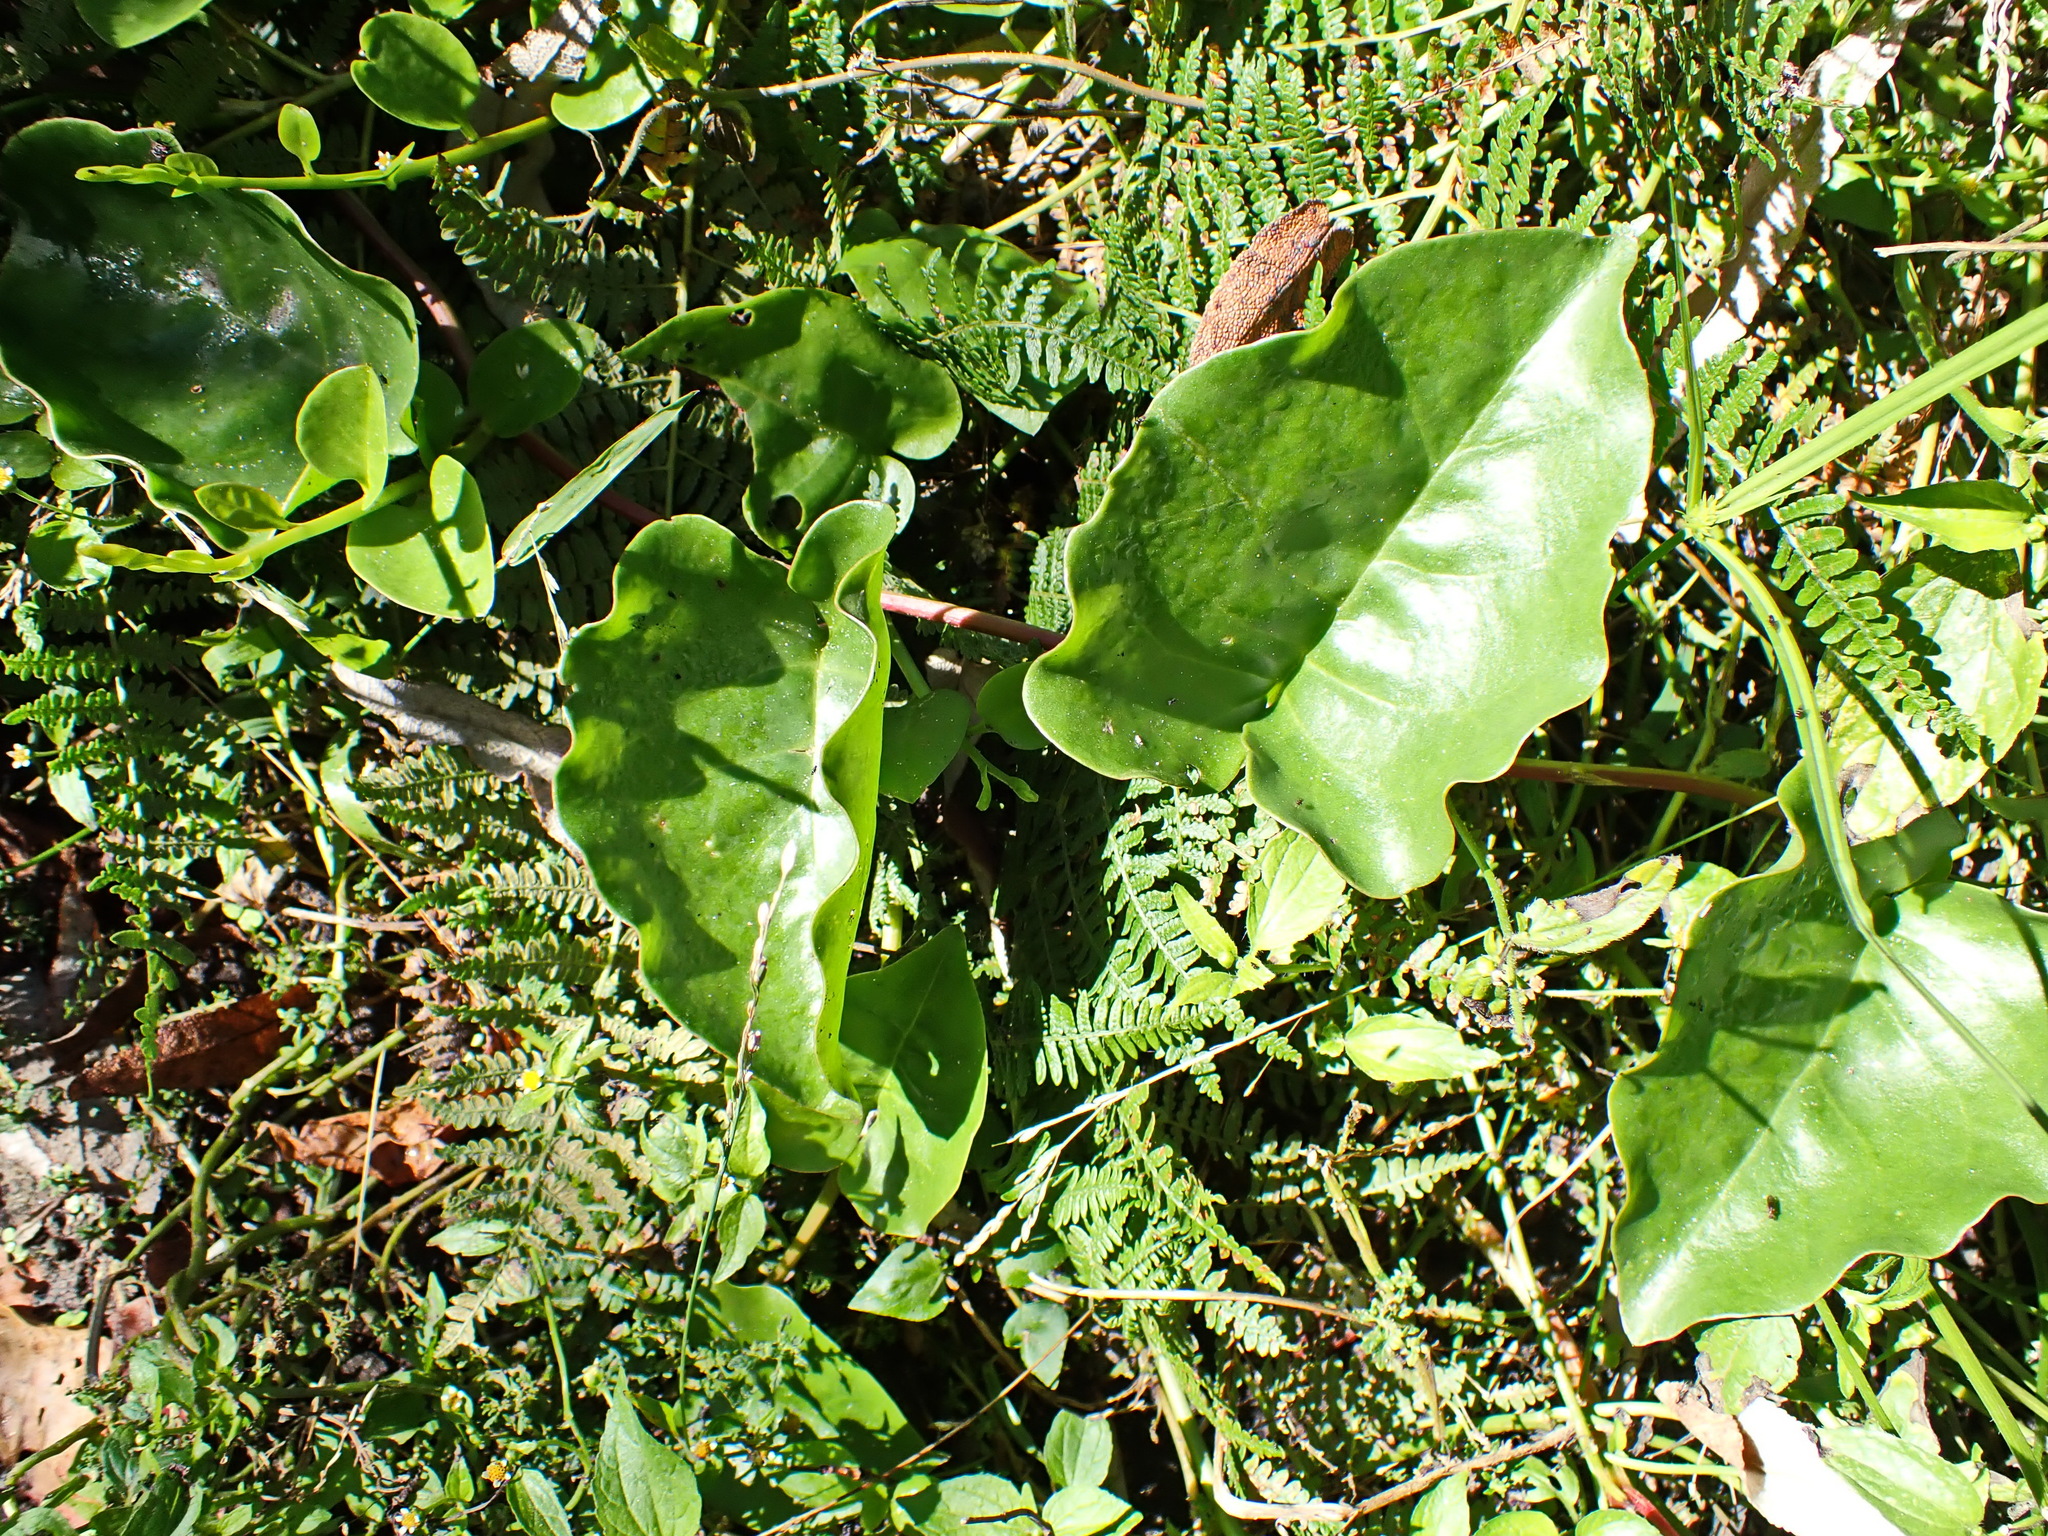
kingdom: Plantae
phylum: Tracheophyta
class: Magnoliopsida
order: Caryophyllales
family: Basellaceae
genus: Anredera
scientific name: Anredera cordifolia
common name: Heartleaf madeiravine
